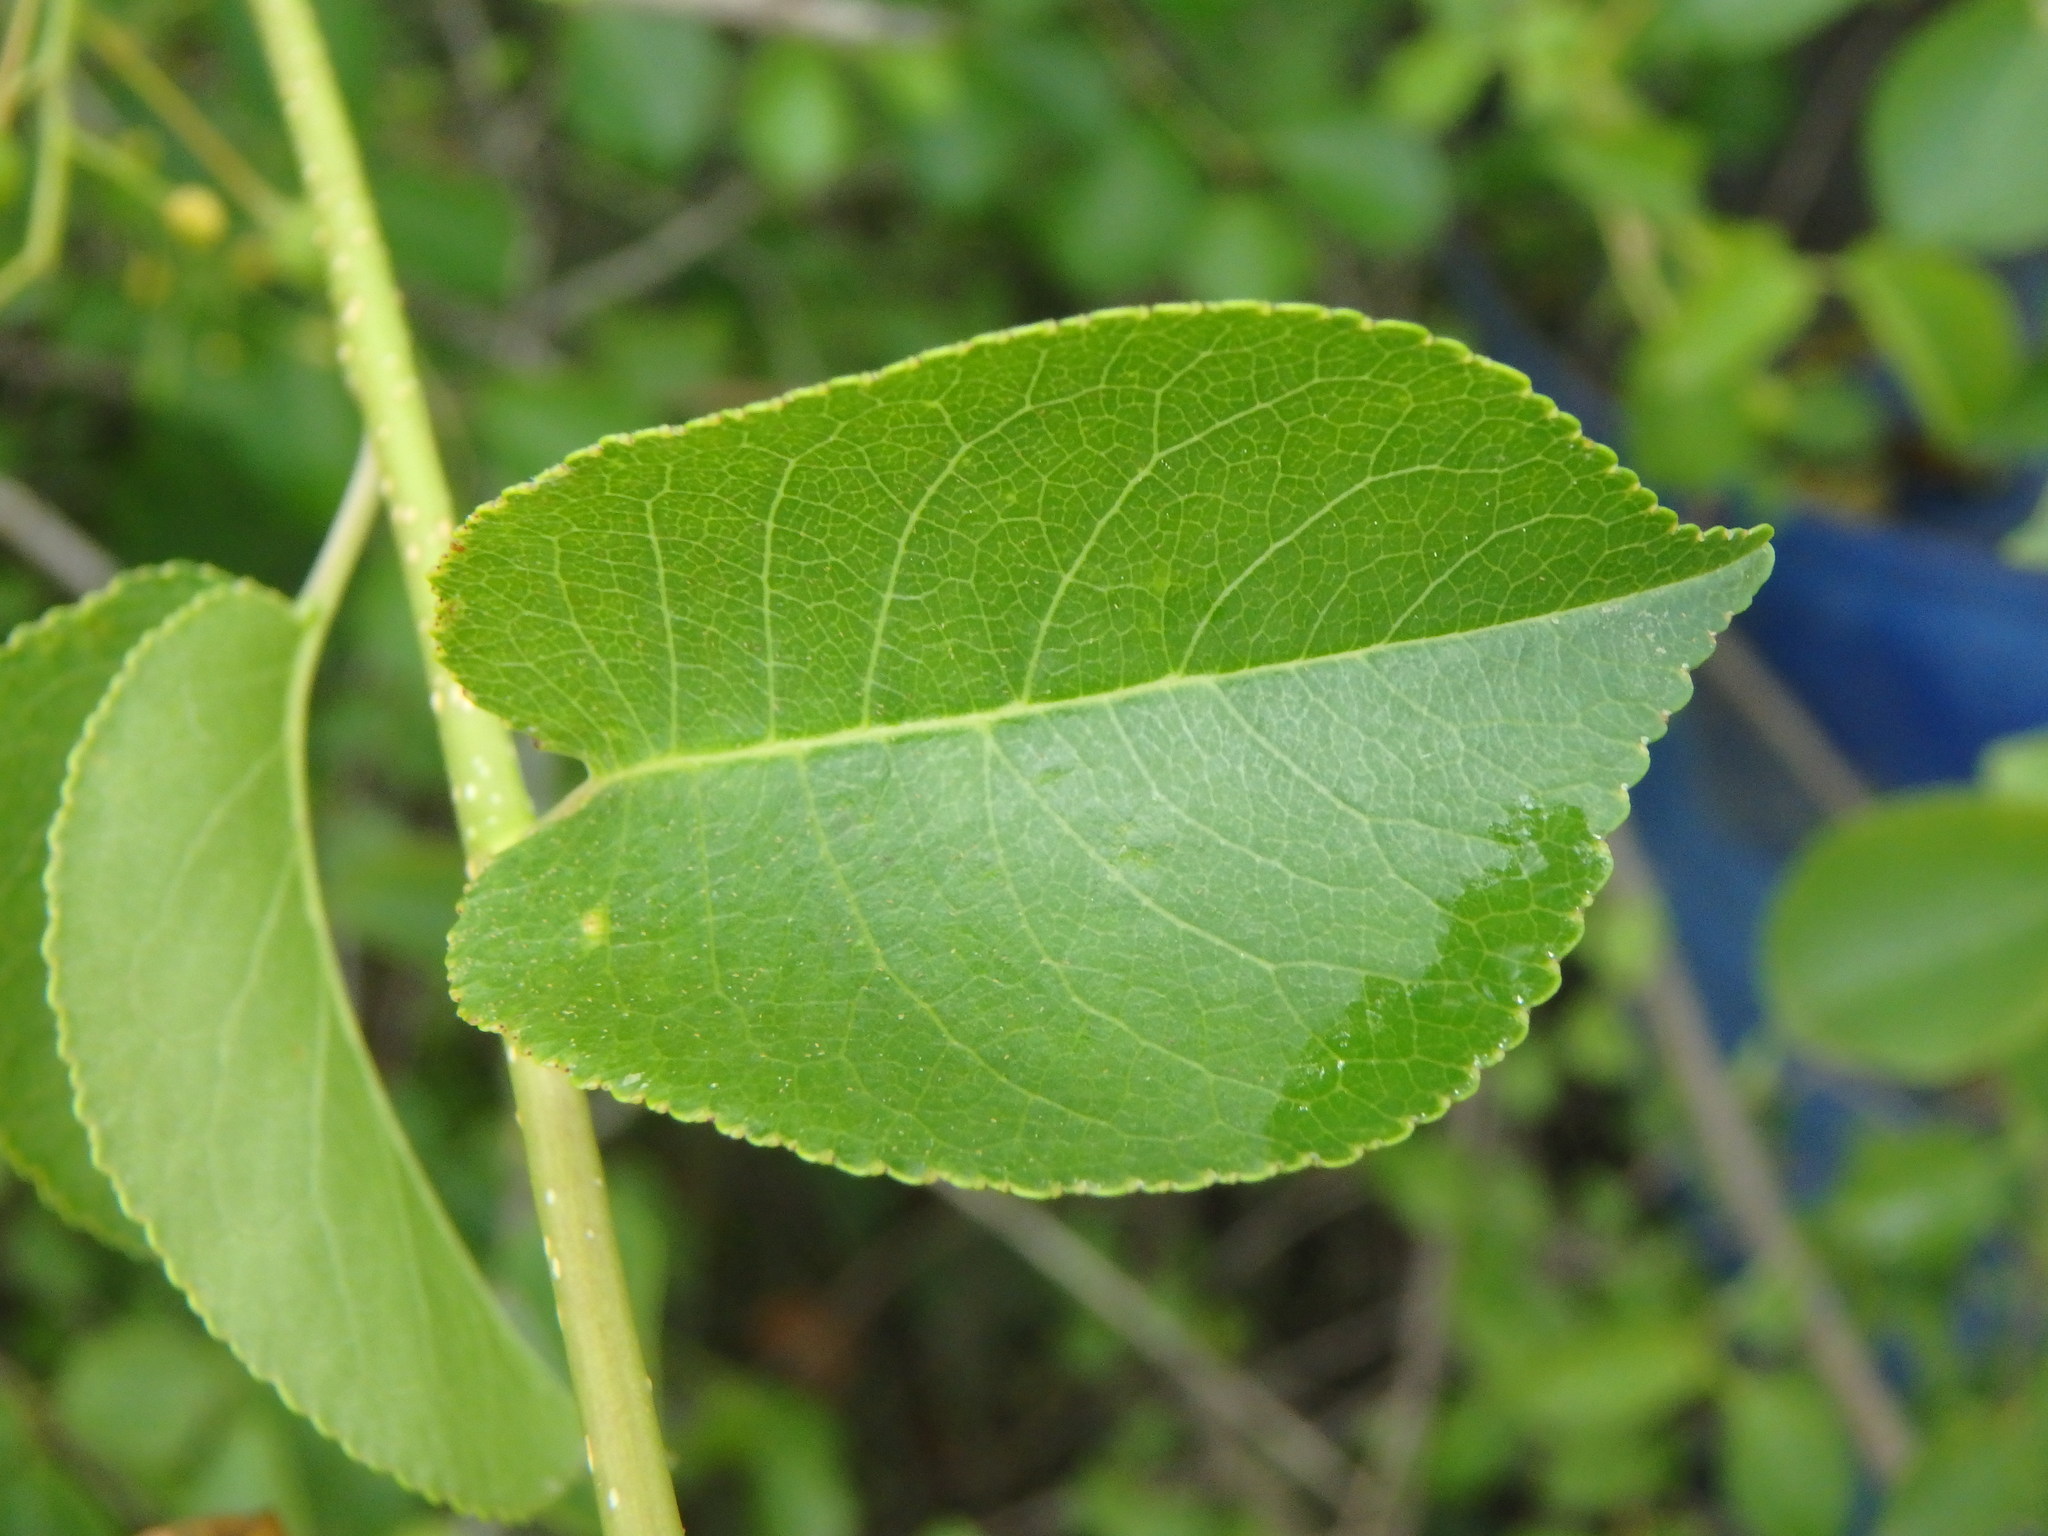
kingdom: Plantae
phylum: Tracheophyta
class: Magnoliopsida
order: Rosales
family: Rosaceae
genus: Prunus
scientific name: Prunus mahaleb
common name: Mahaleb cherry
